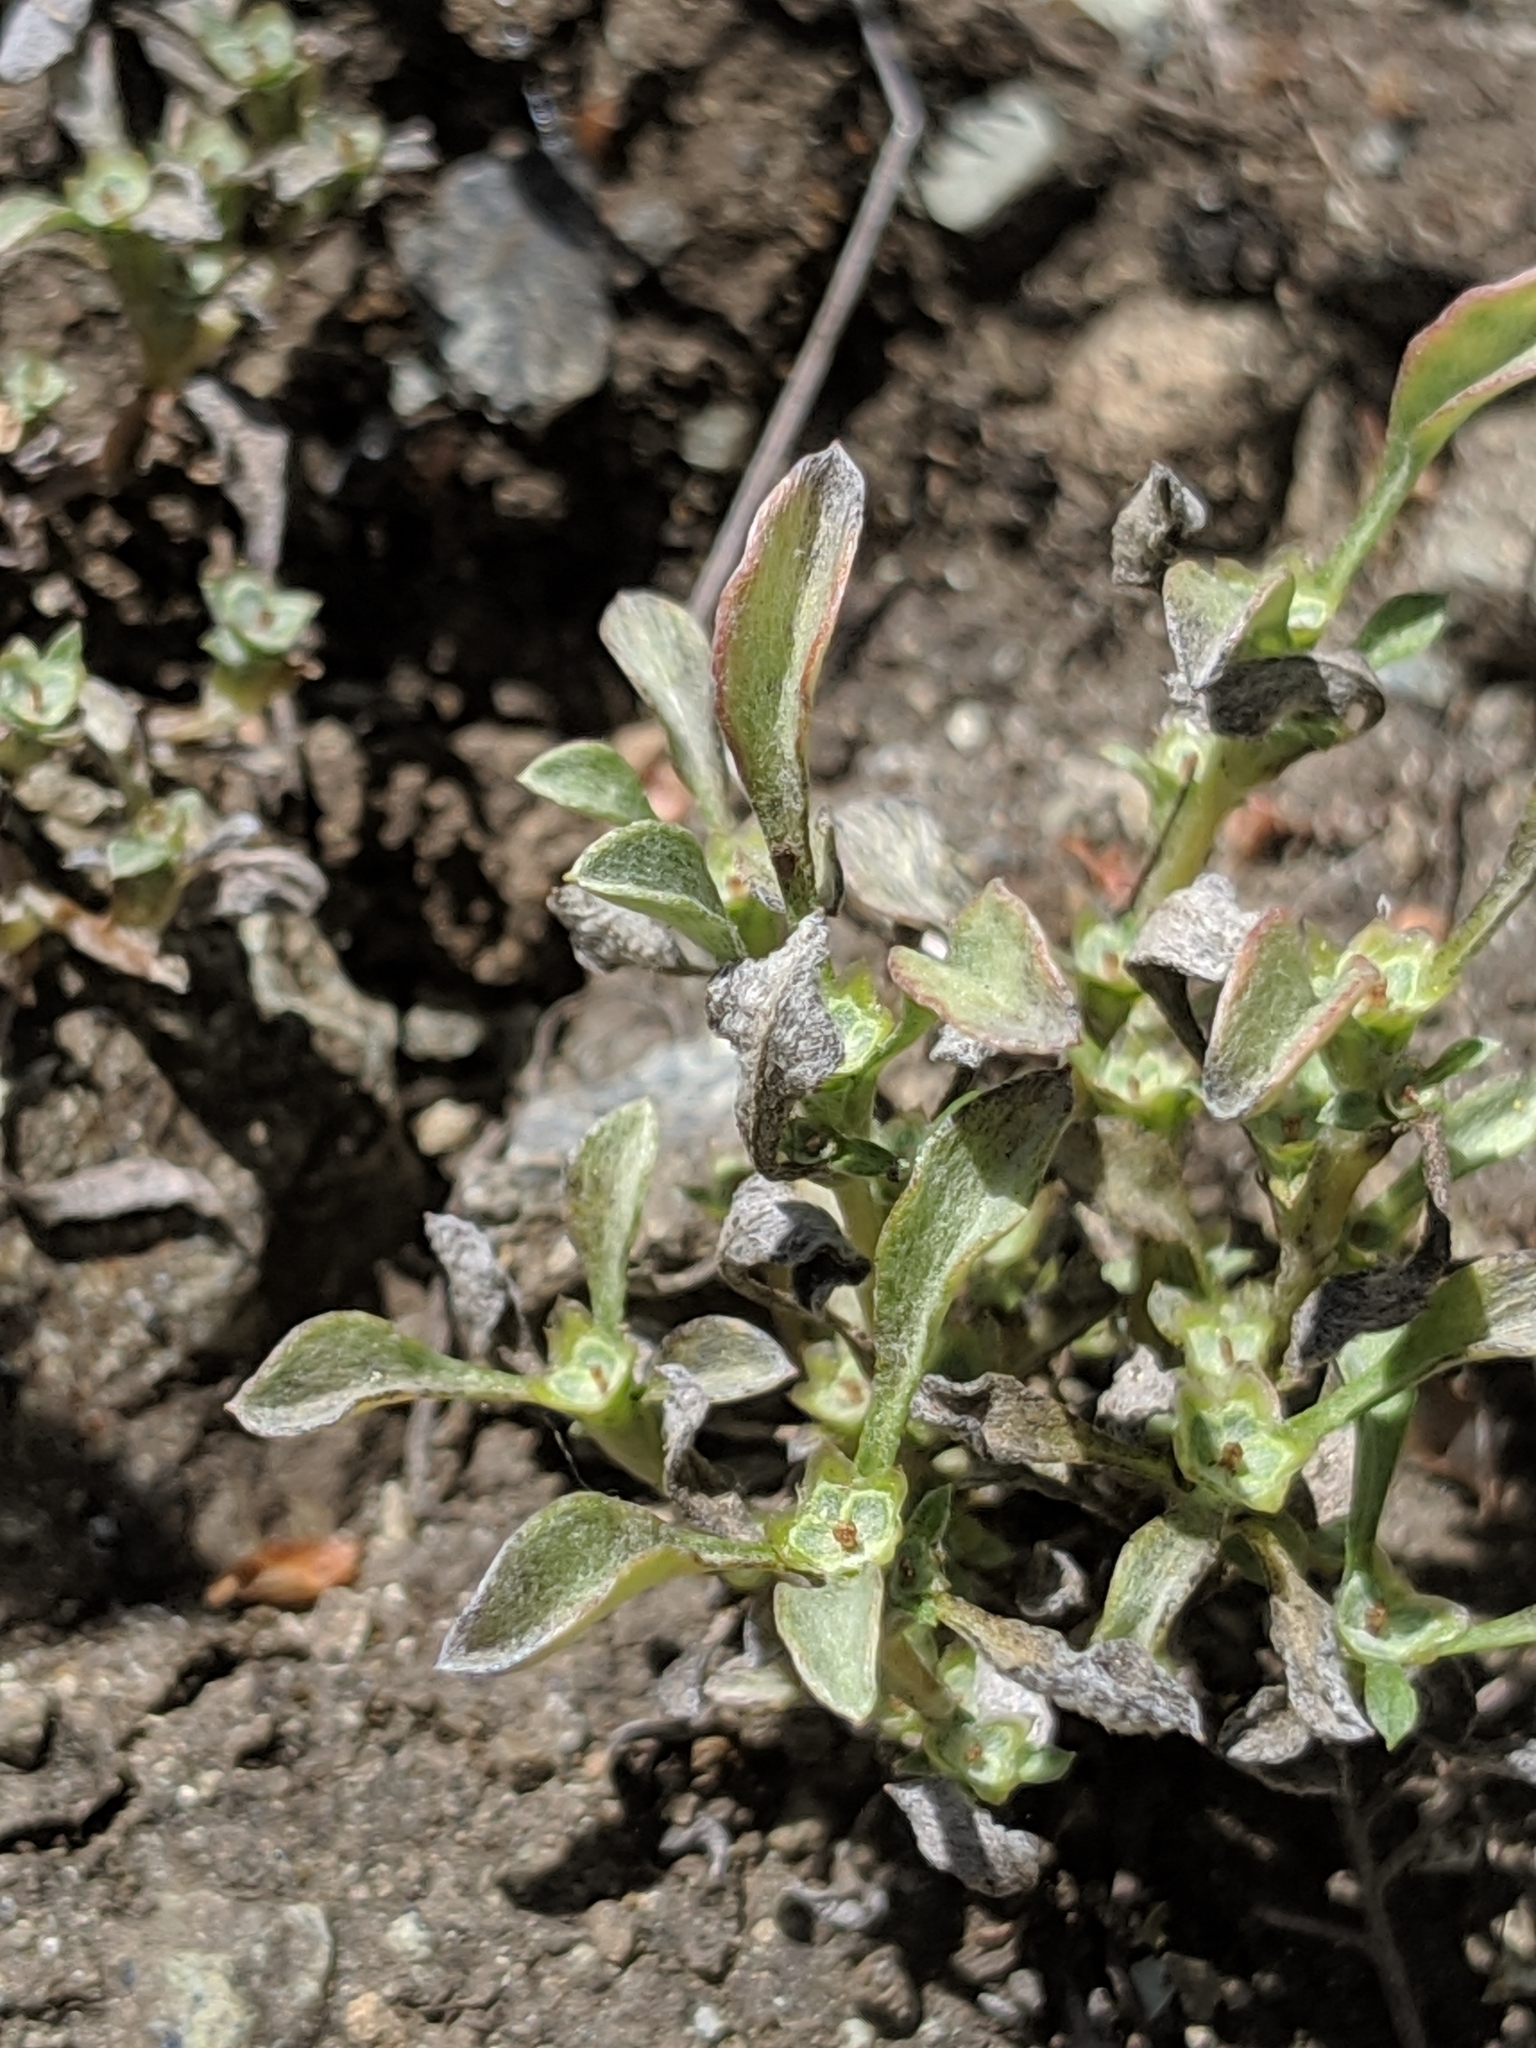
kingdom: Plantae
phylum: Tracheophyta
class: Magnoliopsida
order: Asterales
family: Asteraceae
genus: Hesperevax
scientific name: Hesperevax sparsiflora
